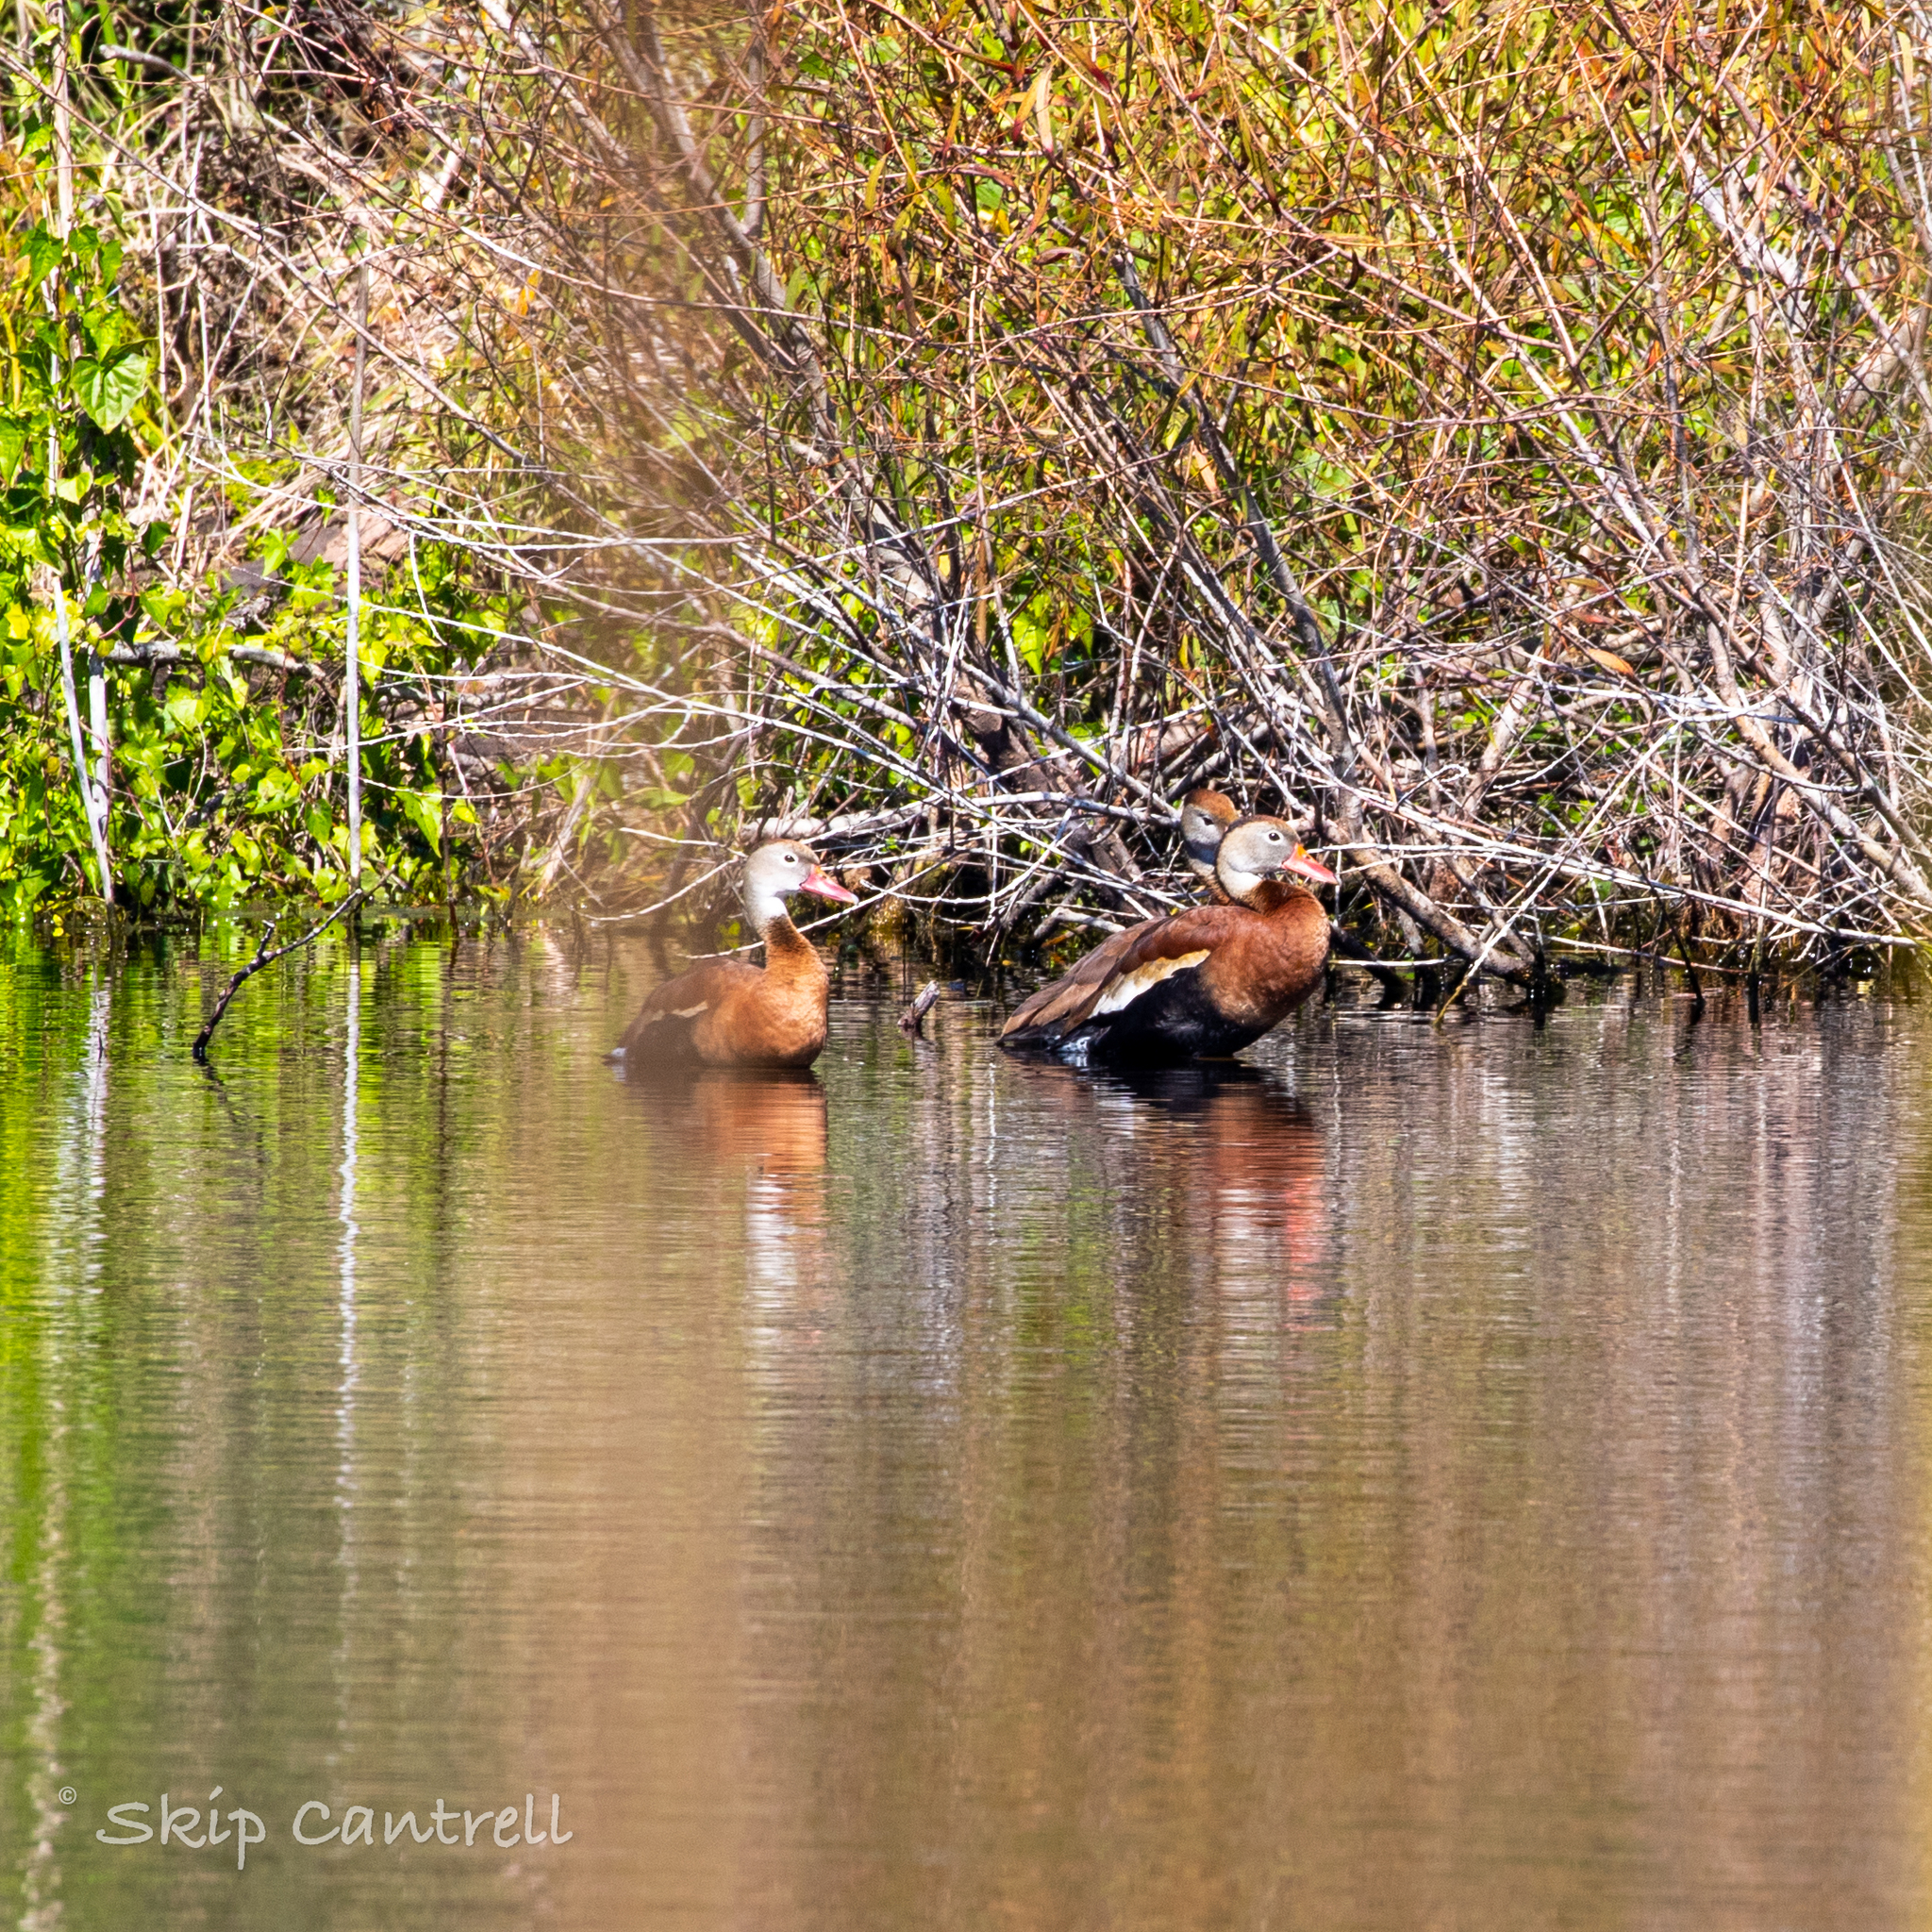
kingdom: Animalia
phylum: Chordata
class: Aves
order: Anseriformes
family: Anatidae
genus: Dendrocygna
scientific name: Dendrocygna autumnalis
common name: Black-bellied whistling duck
